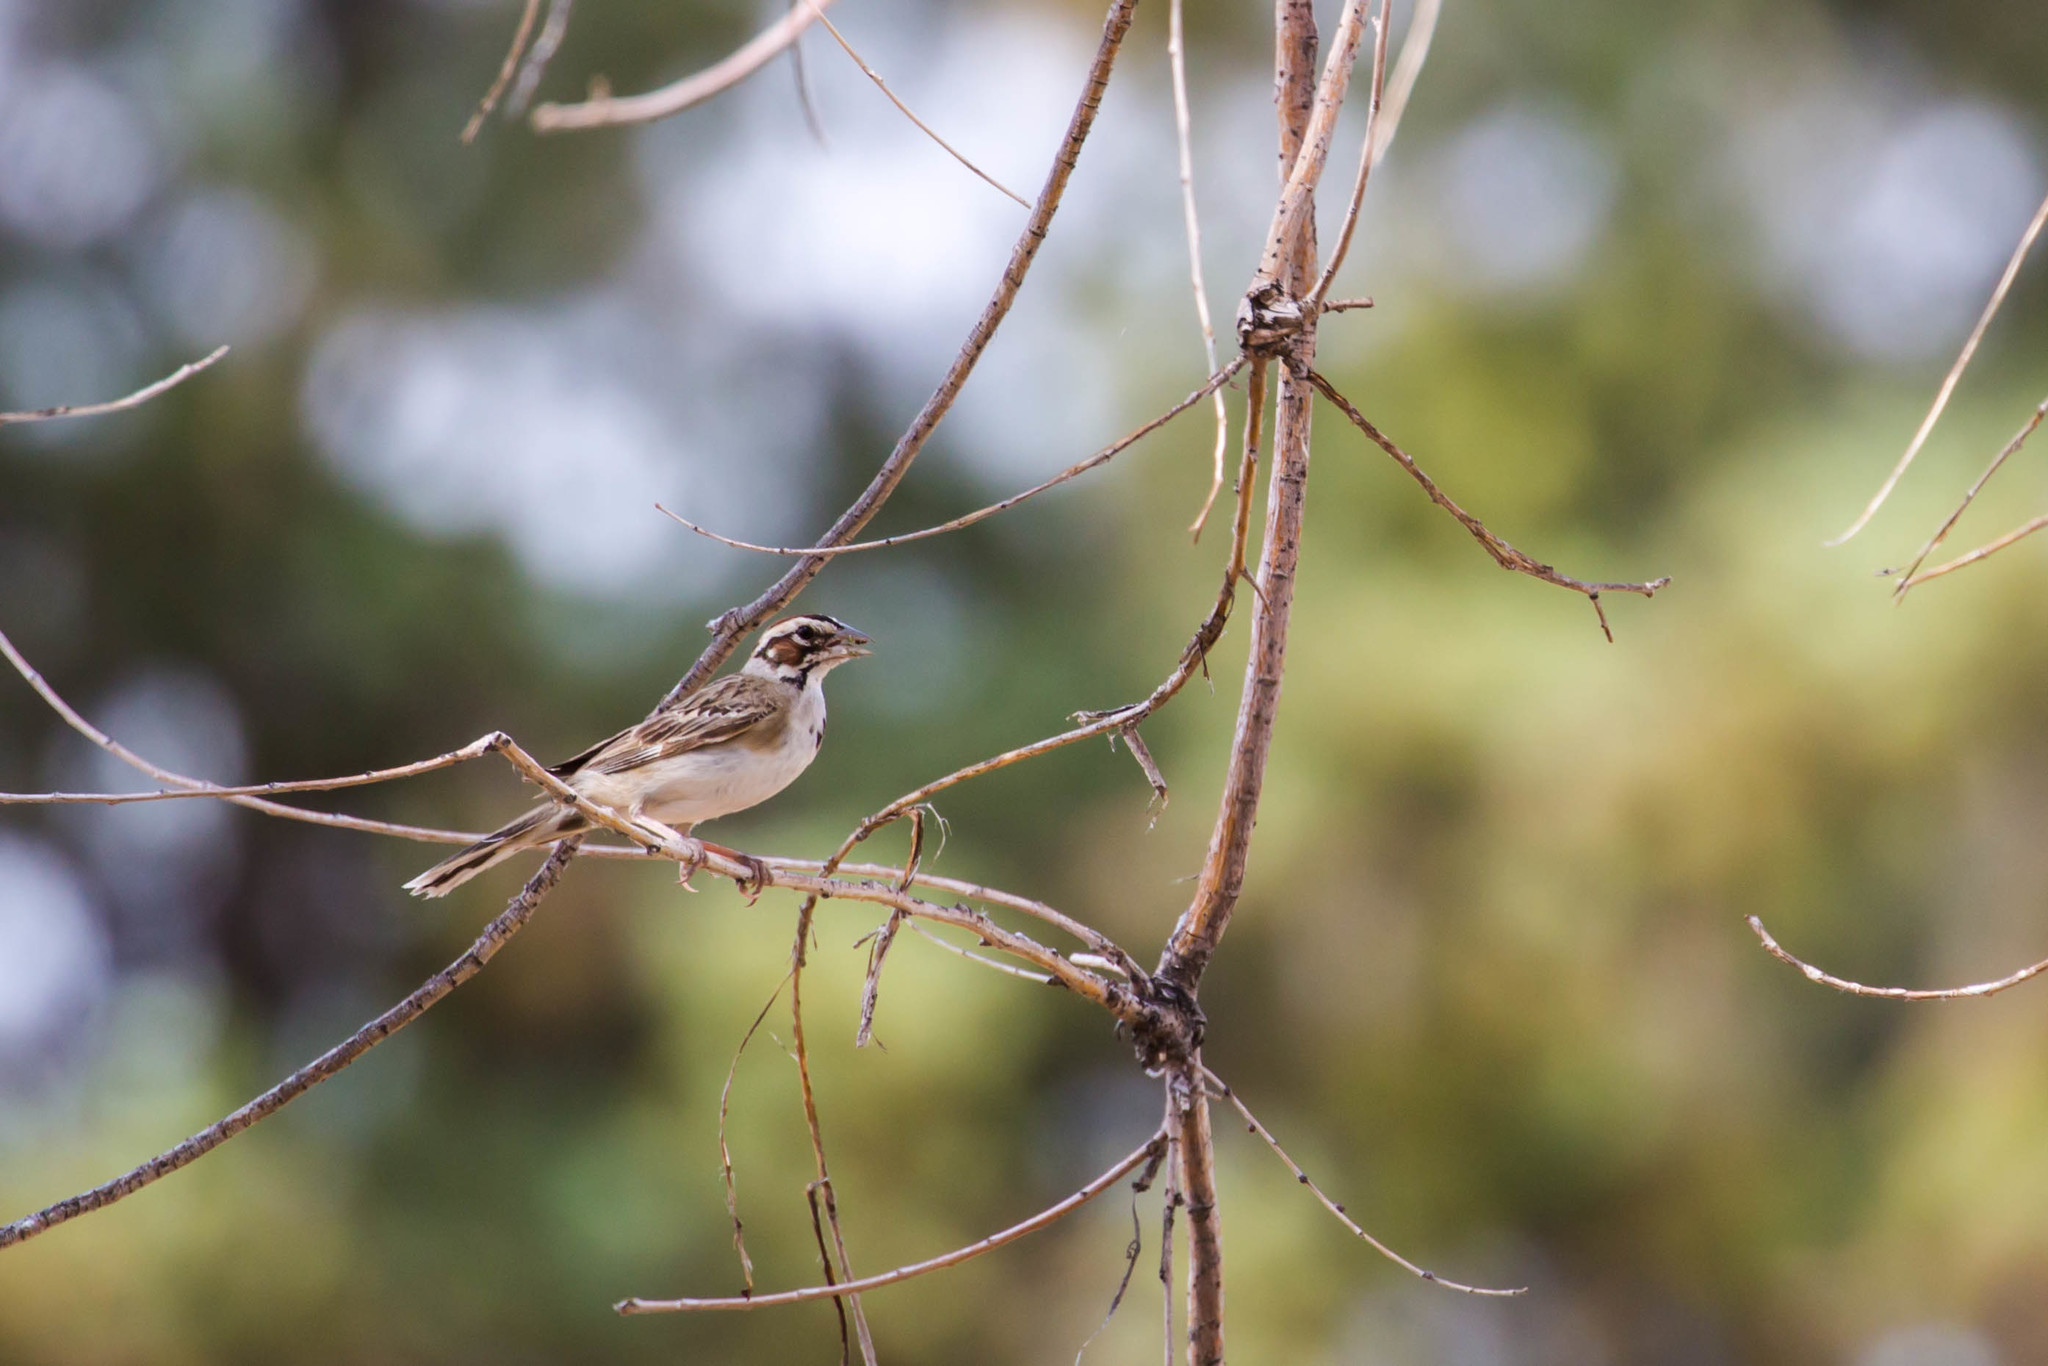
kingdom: Animalia
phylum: Chordata
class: Aves
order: Passeriformes
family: Passerellidae
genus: Chondestes
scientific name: Chondestes grammacus
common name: Lark sparrow
